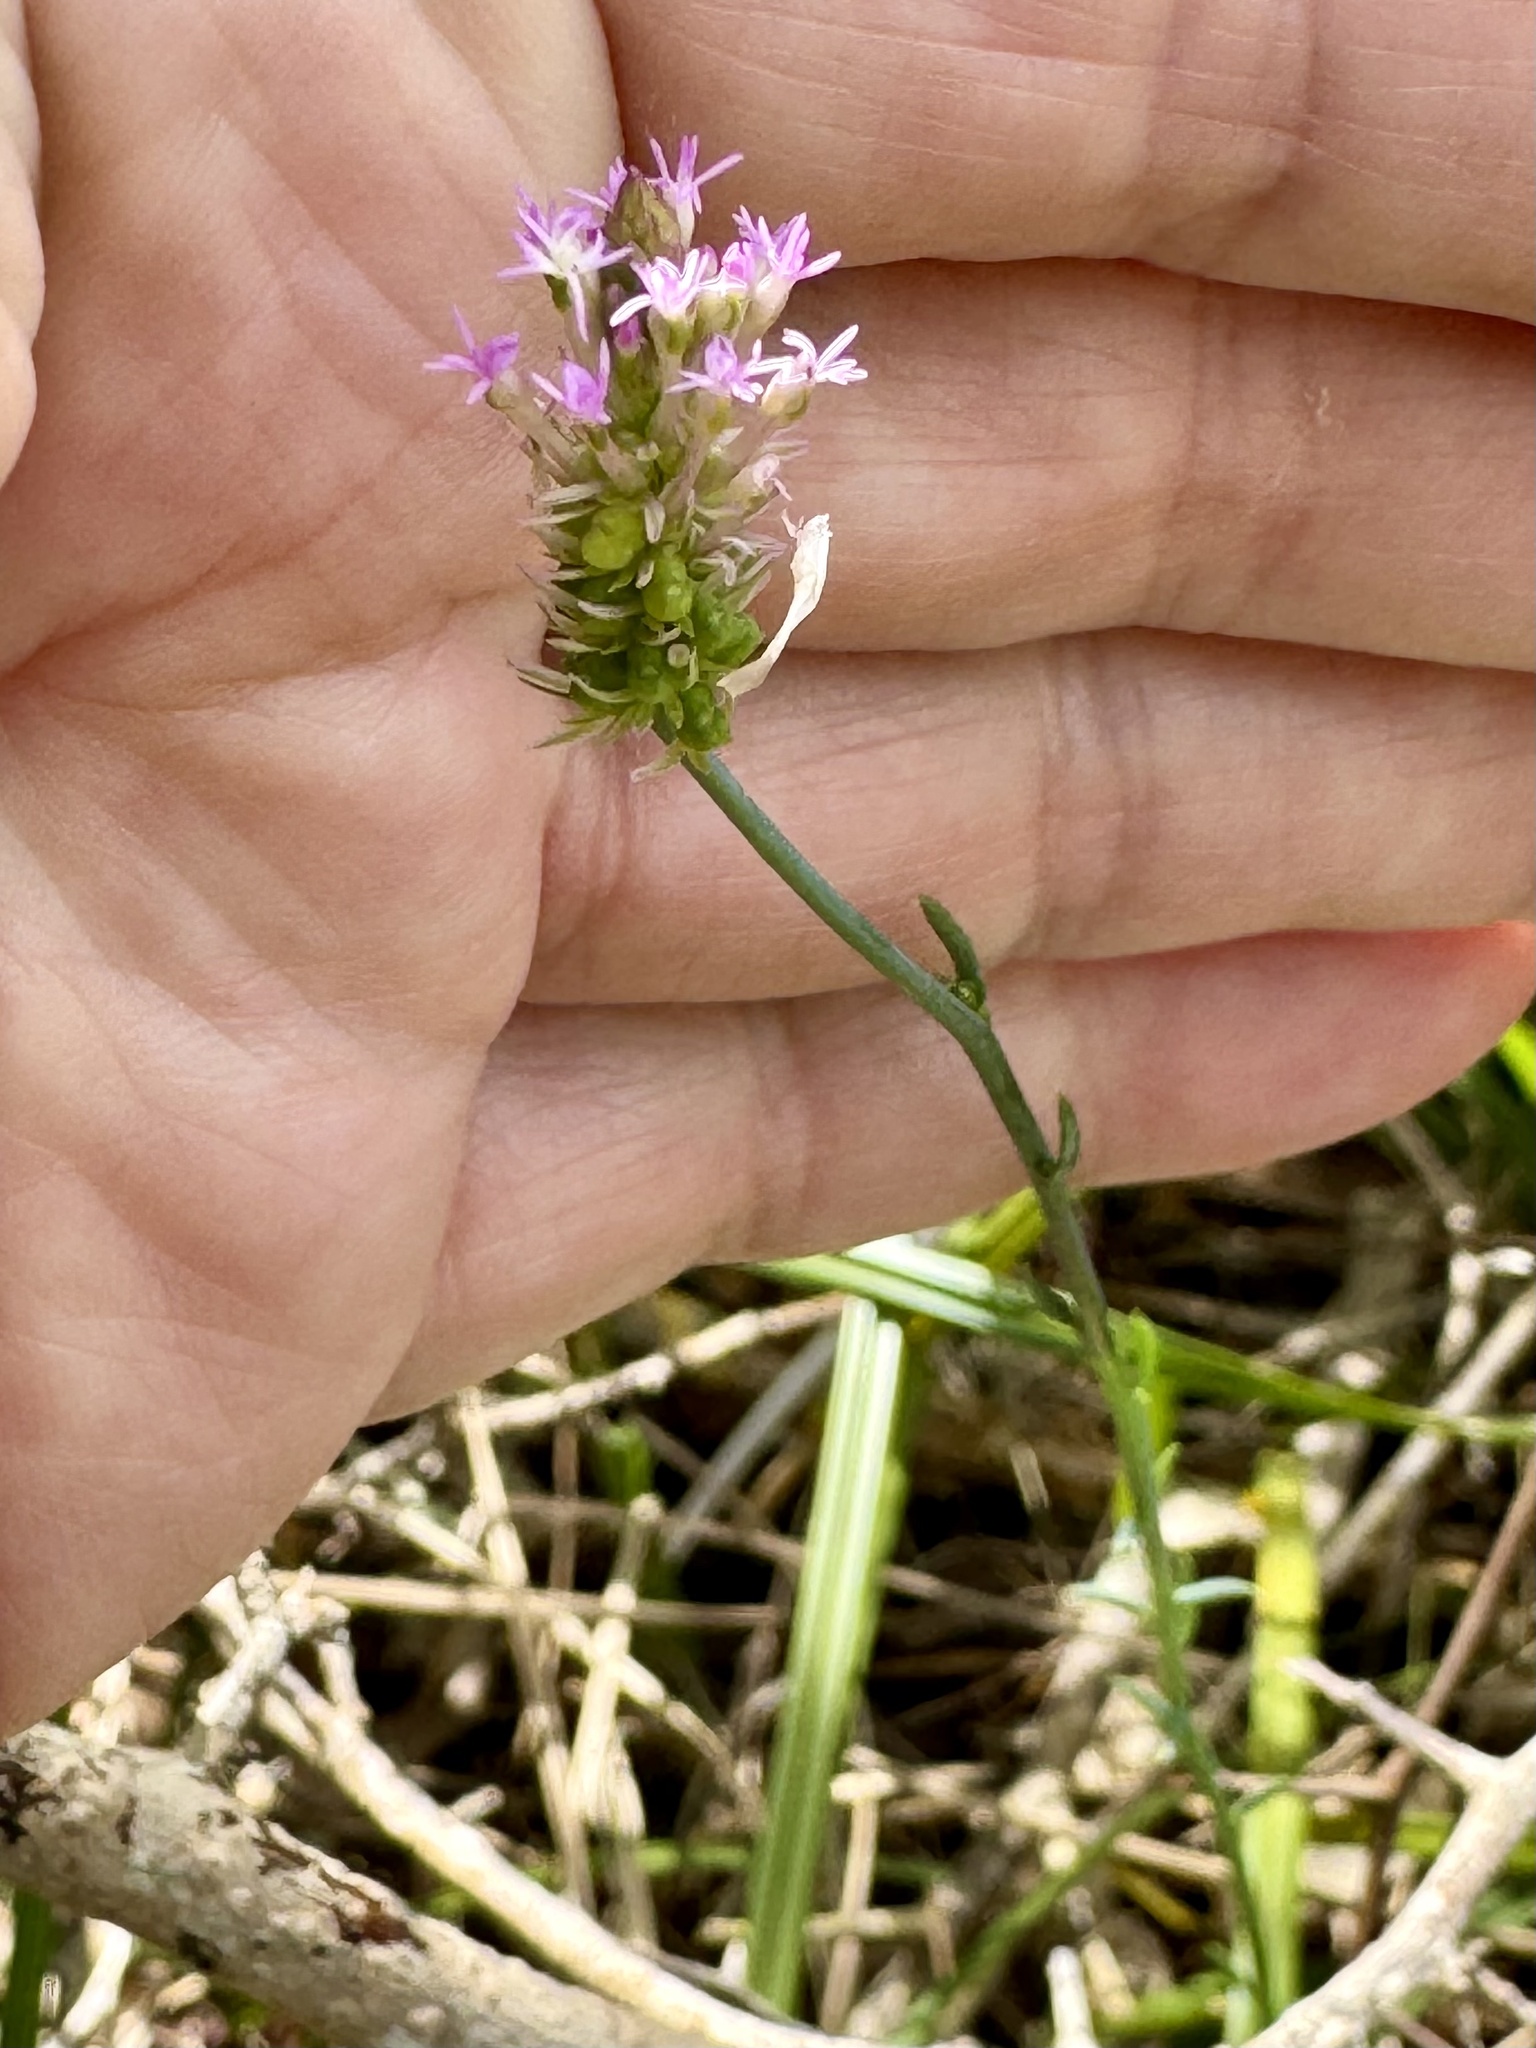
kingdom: Plantae
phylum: Tracheophyta
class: Magnoliopsida
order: Fabales
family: Polygalaceae
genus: Polygala
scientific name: Polygala incarnata
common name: Pink milkwort
